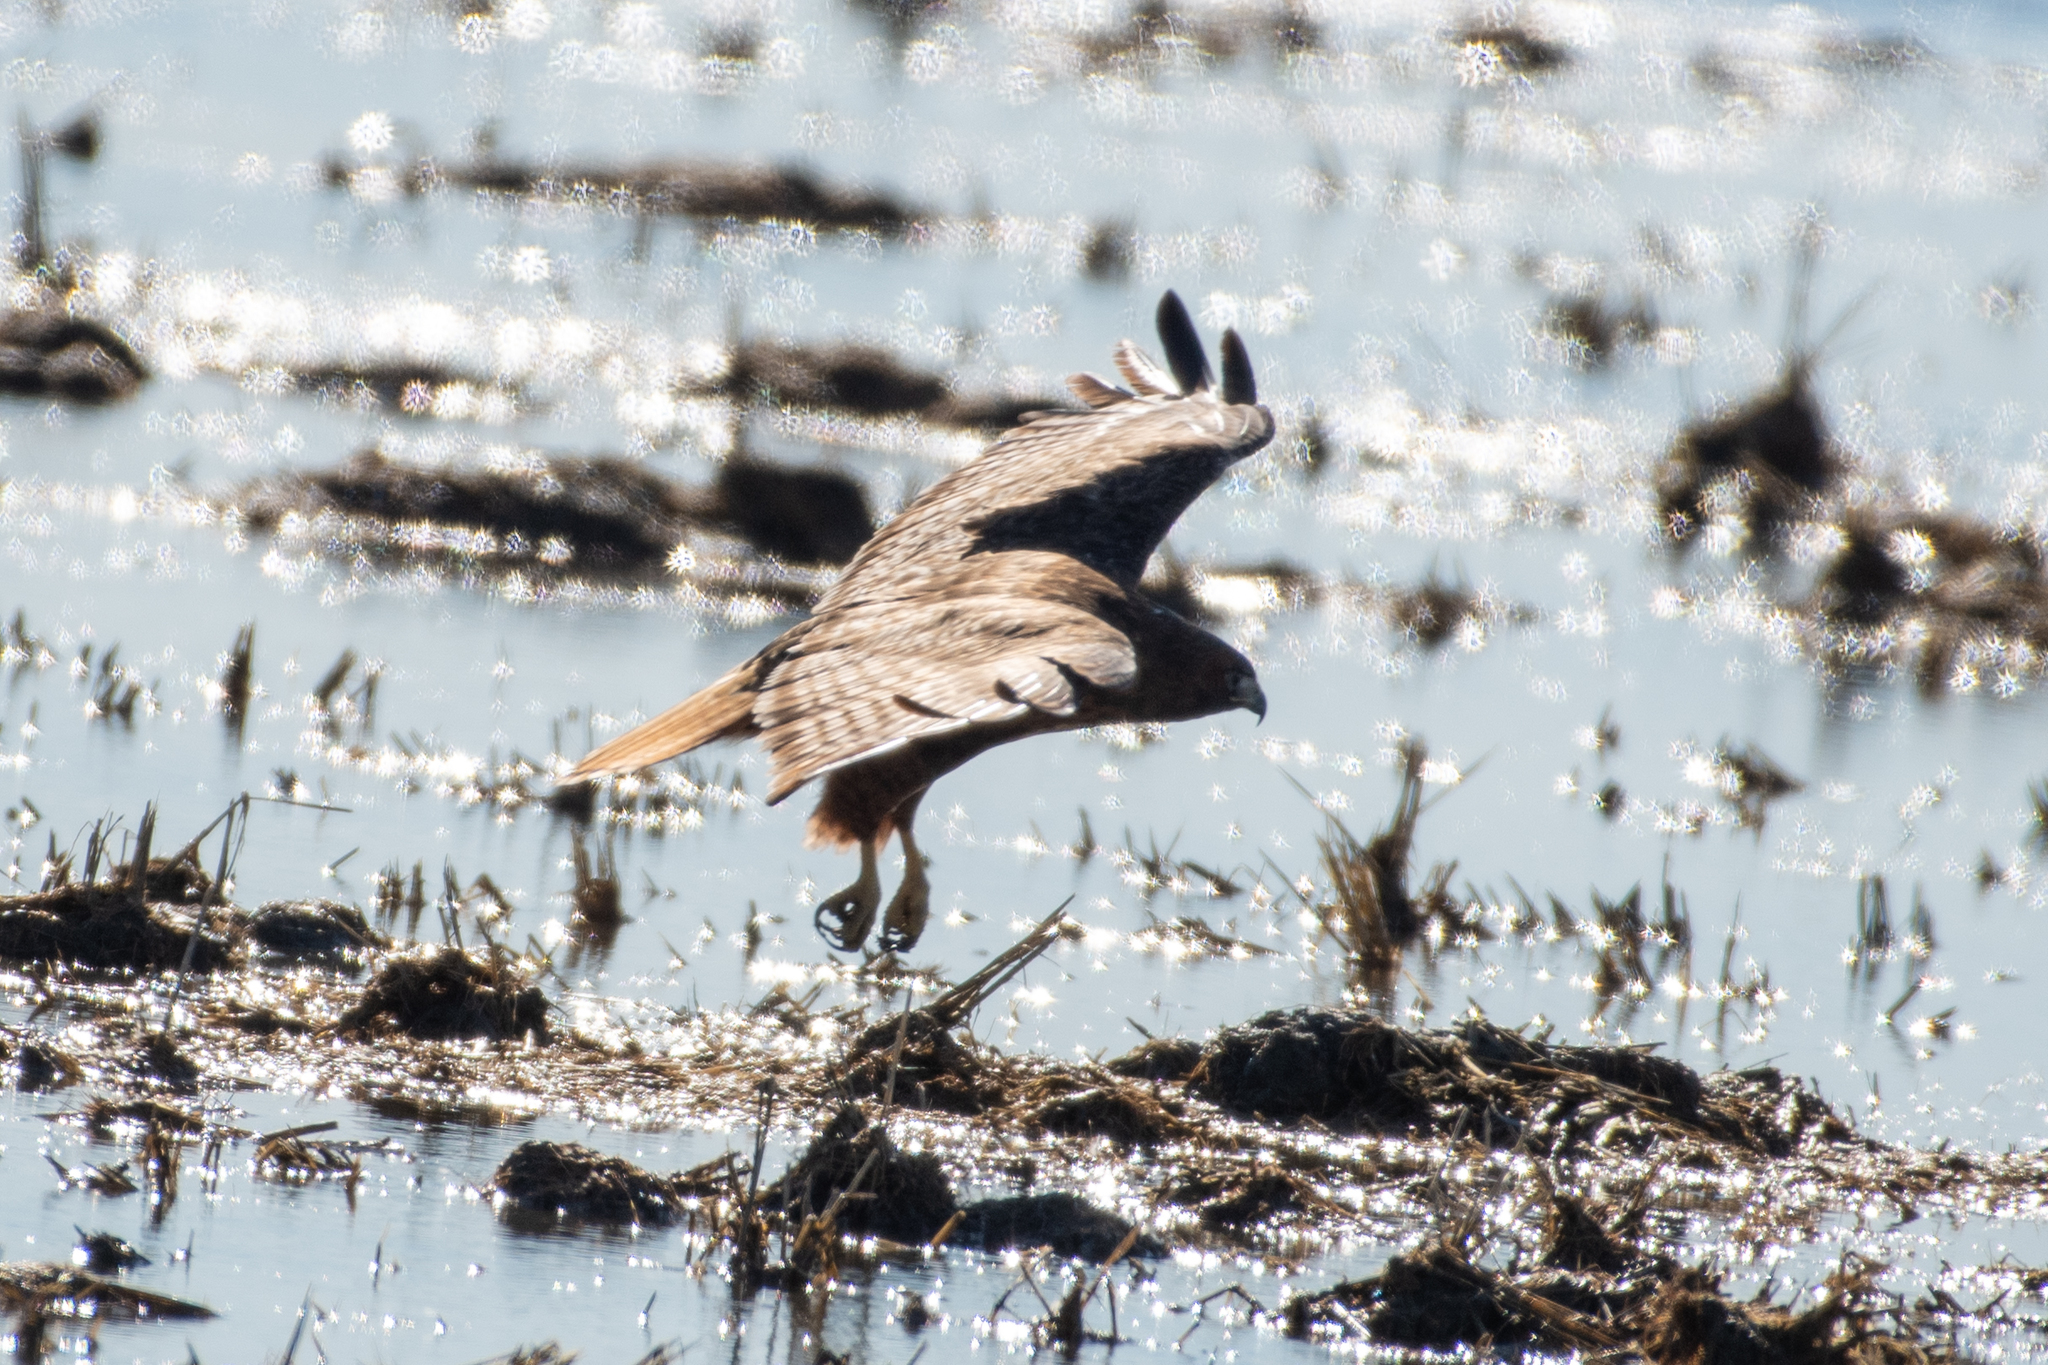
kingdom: Animalia
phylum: Chordata
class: Aves
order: Accipitriformes
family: Accipitridae
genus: Buteo
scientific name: Buteo jamaicensis
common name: Red-tailed hawk
